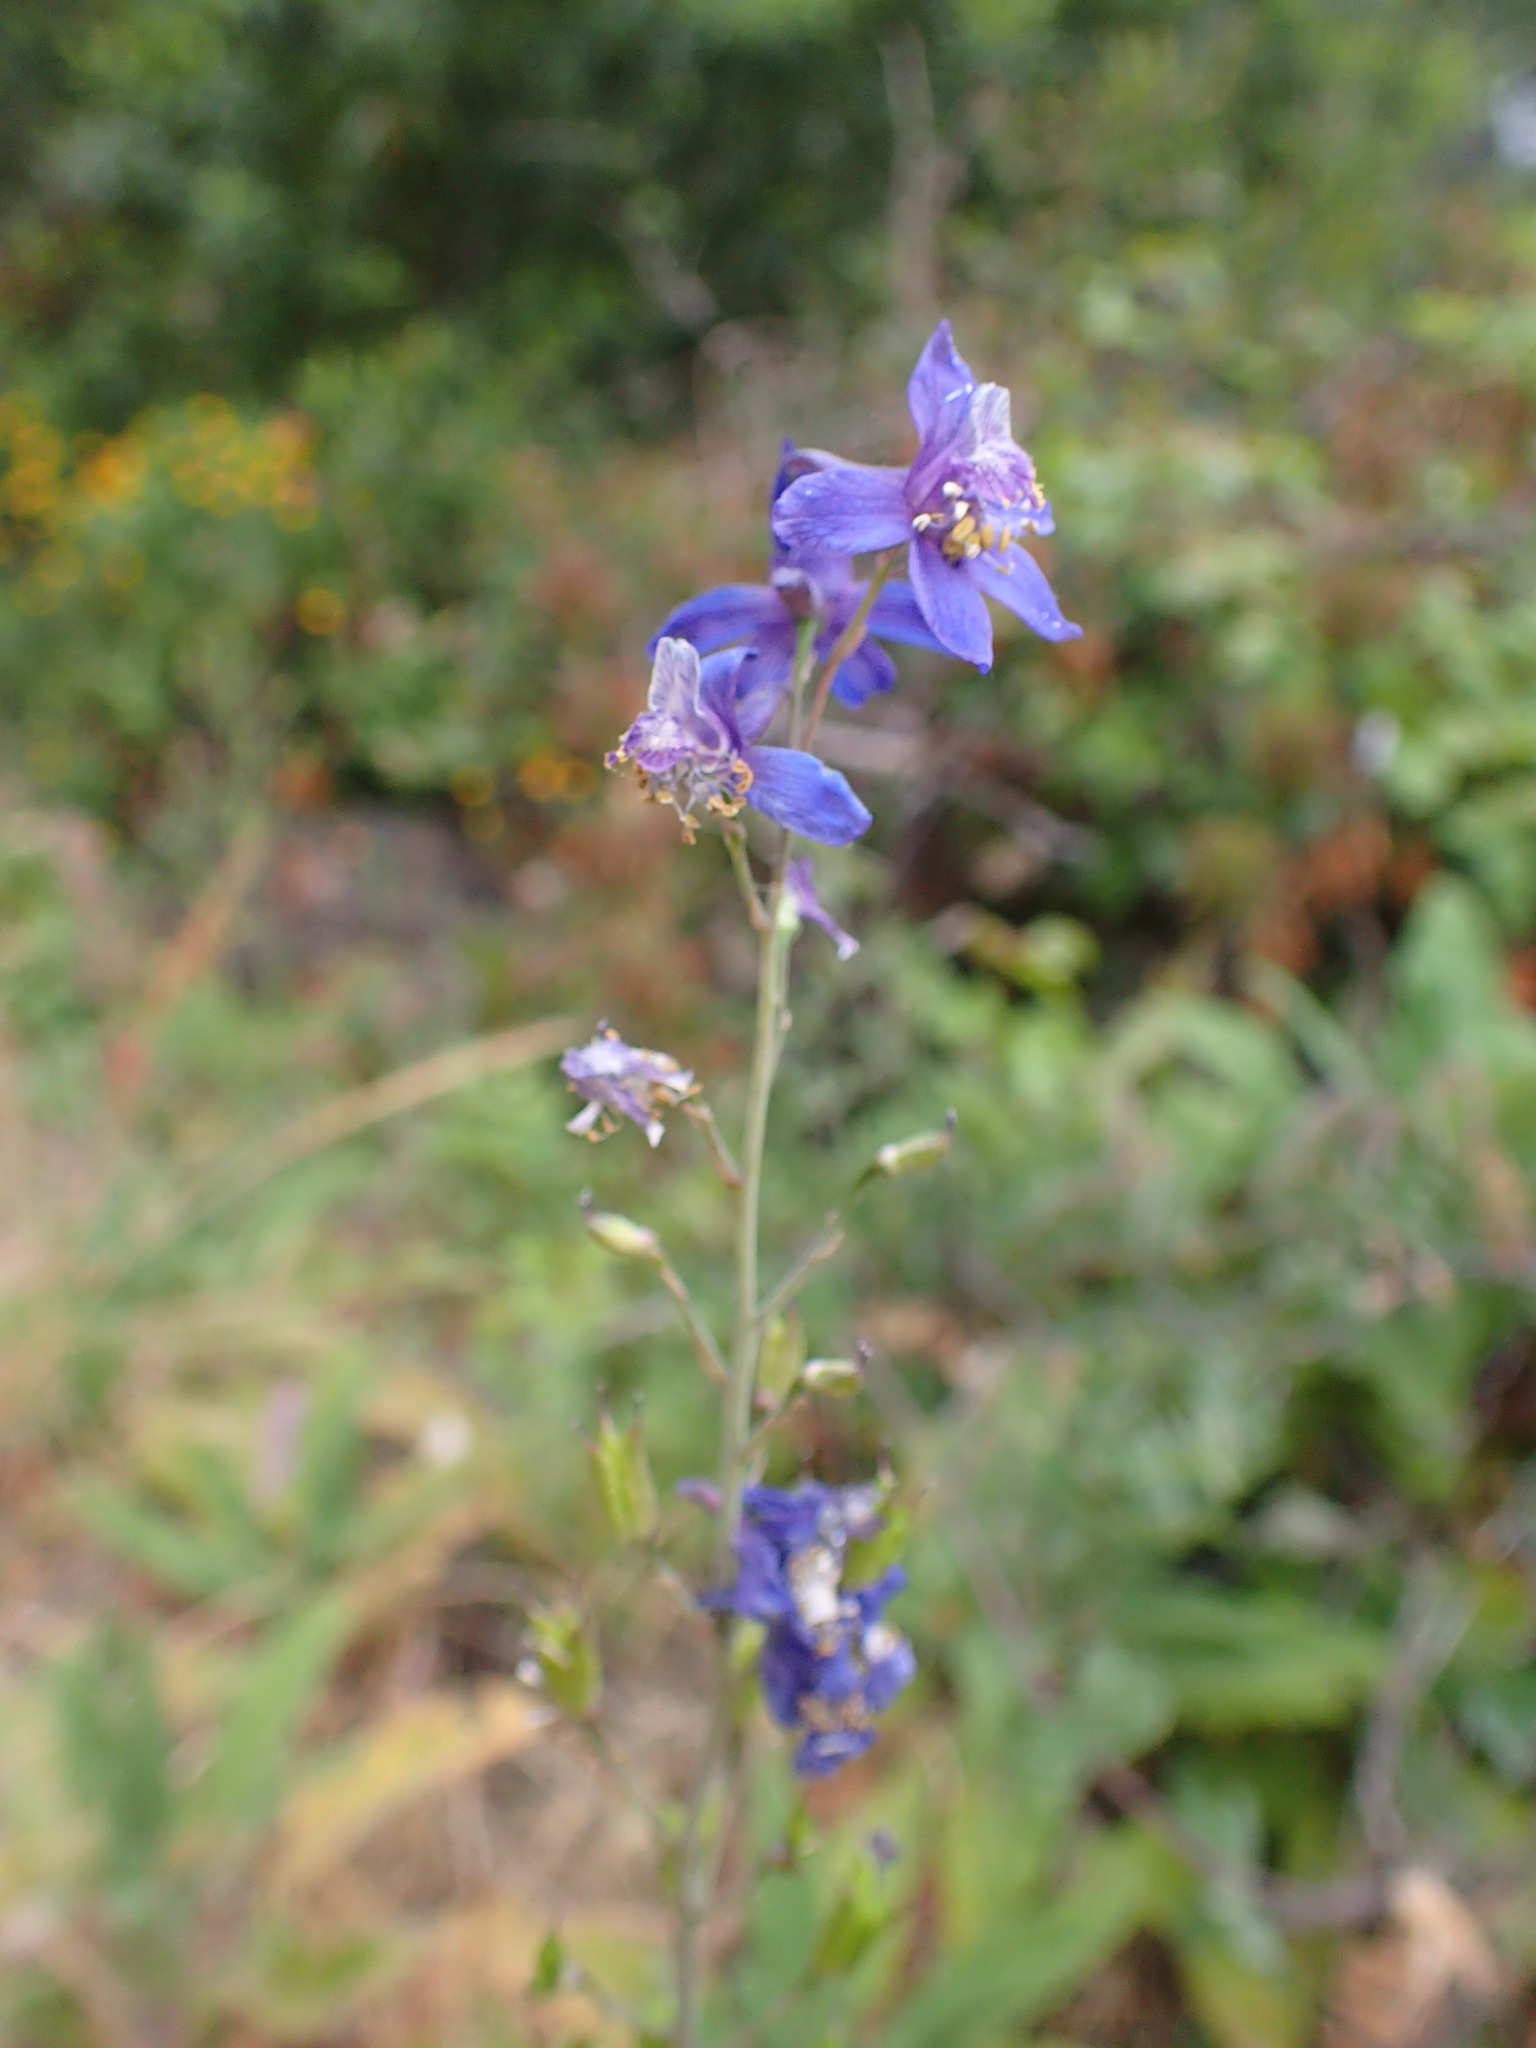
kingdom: Plantae
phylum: Tracheophyta
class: Magnoliopsida
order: Ranunculales
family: Ranunculaceae
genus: Delphinium
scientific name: Delphinium parryi
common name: Parry's larkspur
